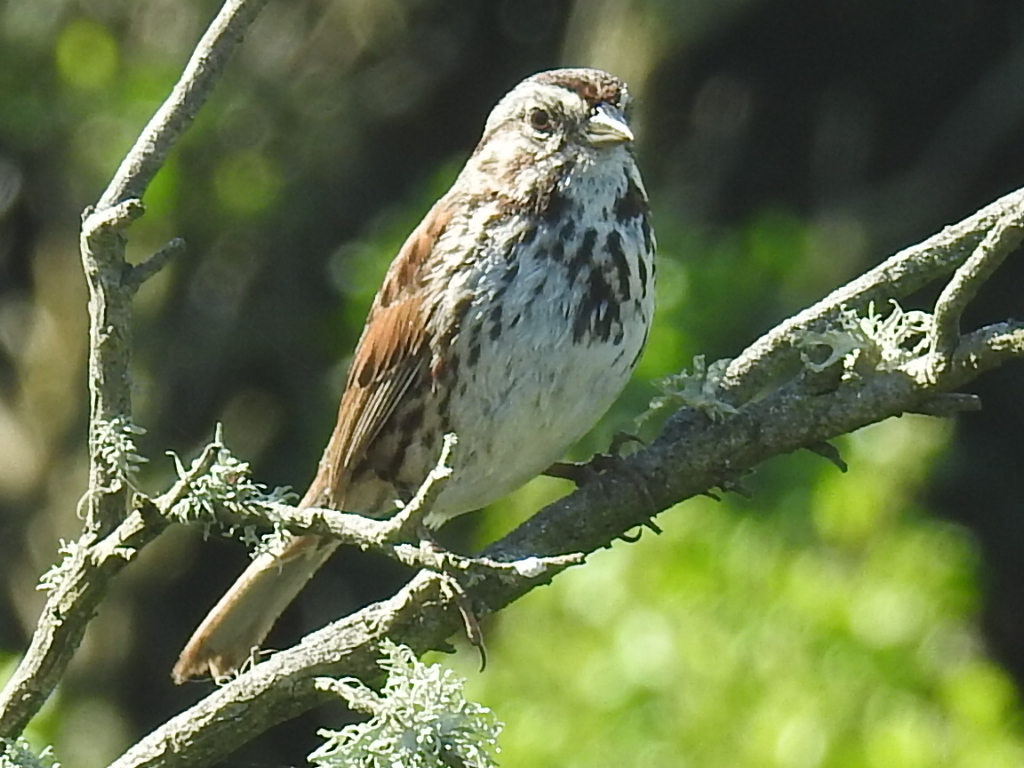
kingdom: Animalia
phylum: Chordata
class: Aves
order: Passeriformes
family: Passerellidae
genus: Melospiza
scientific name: Melospiza melodia
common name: Song sparrow
